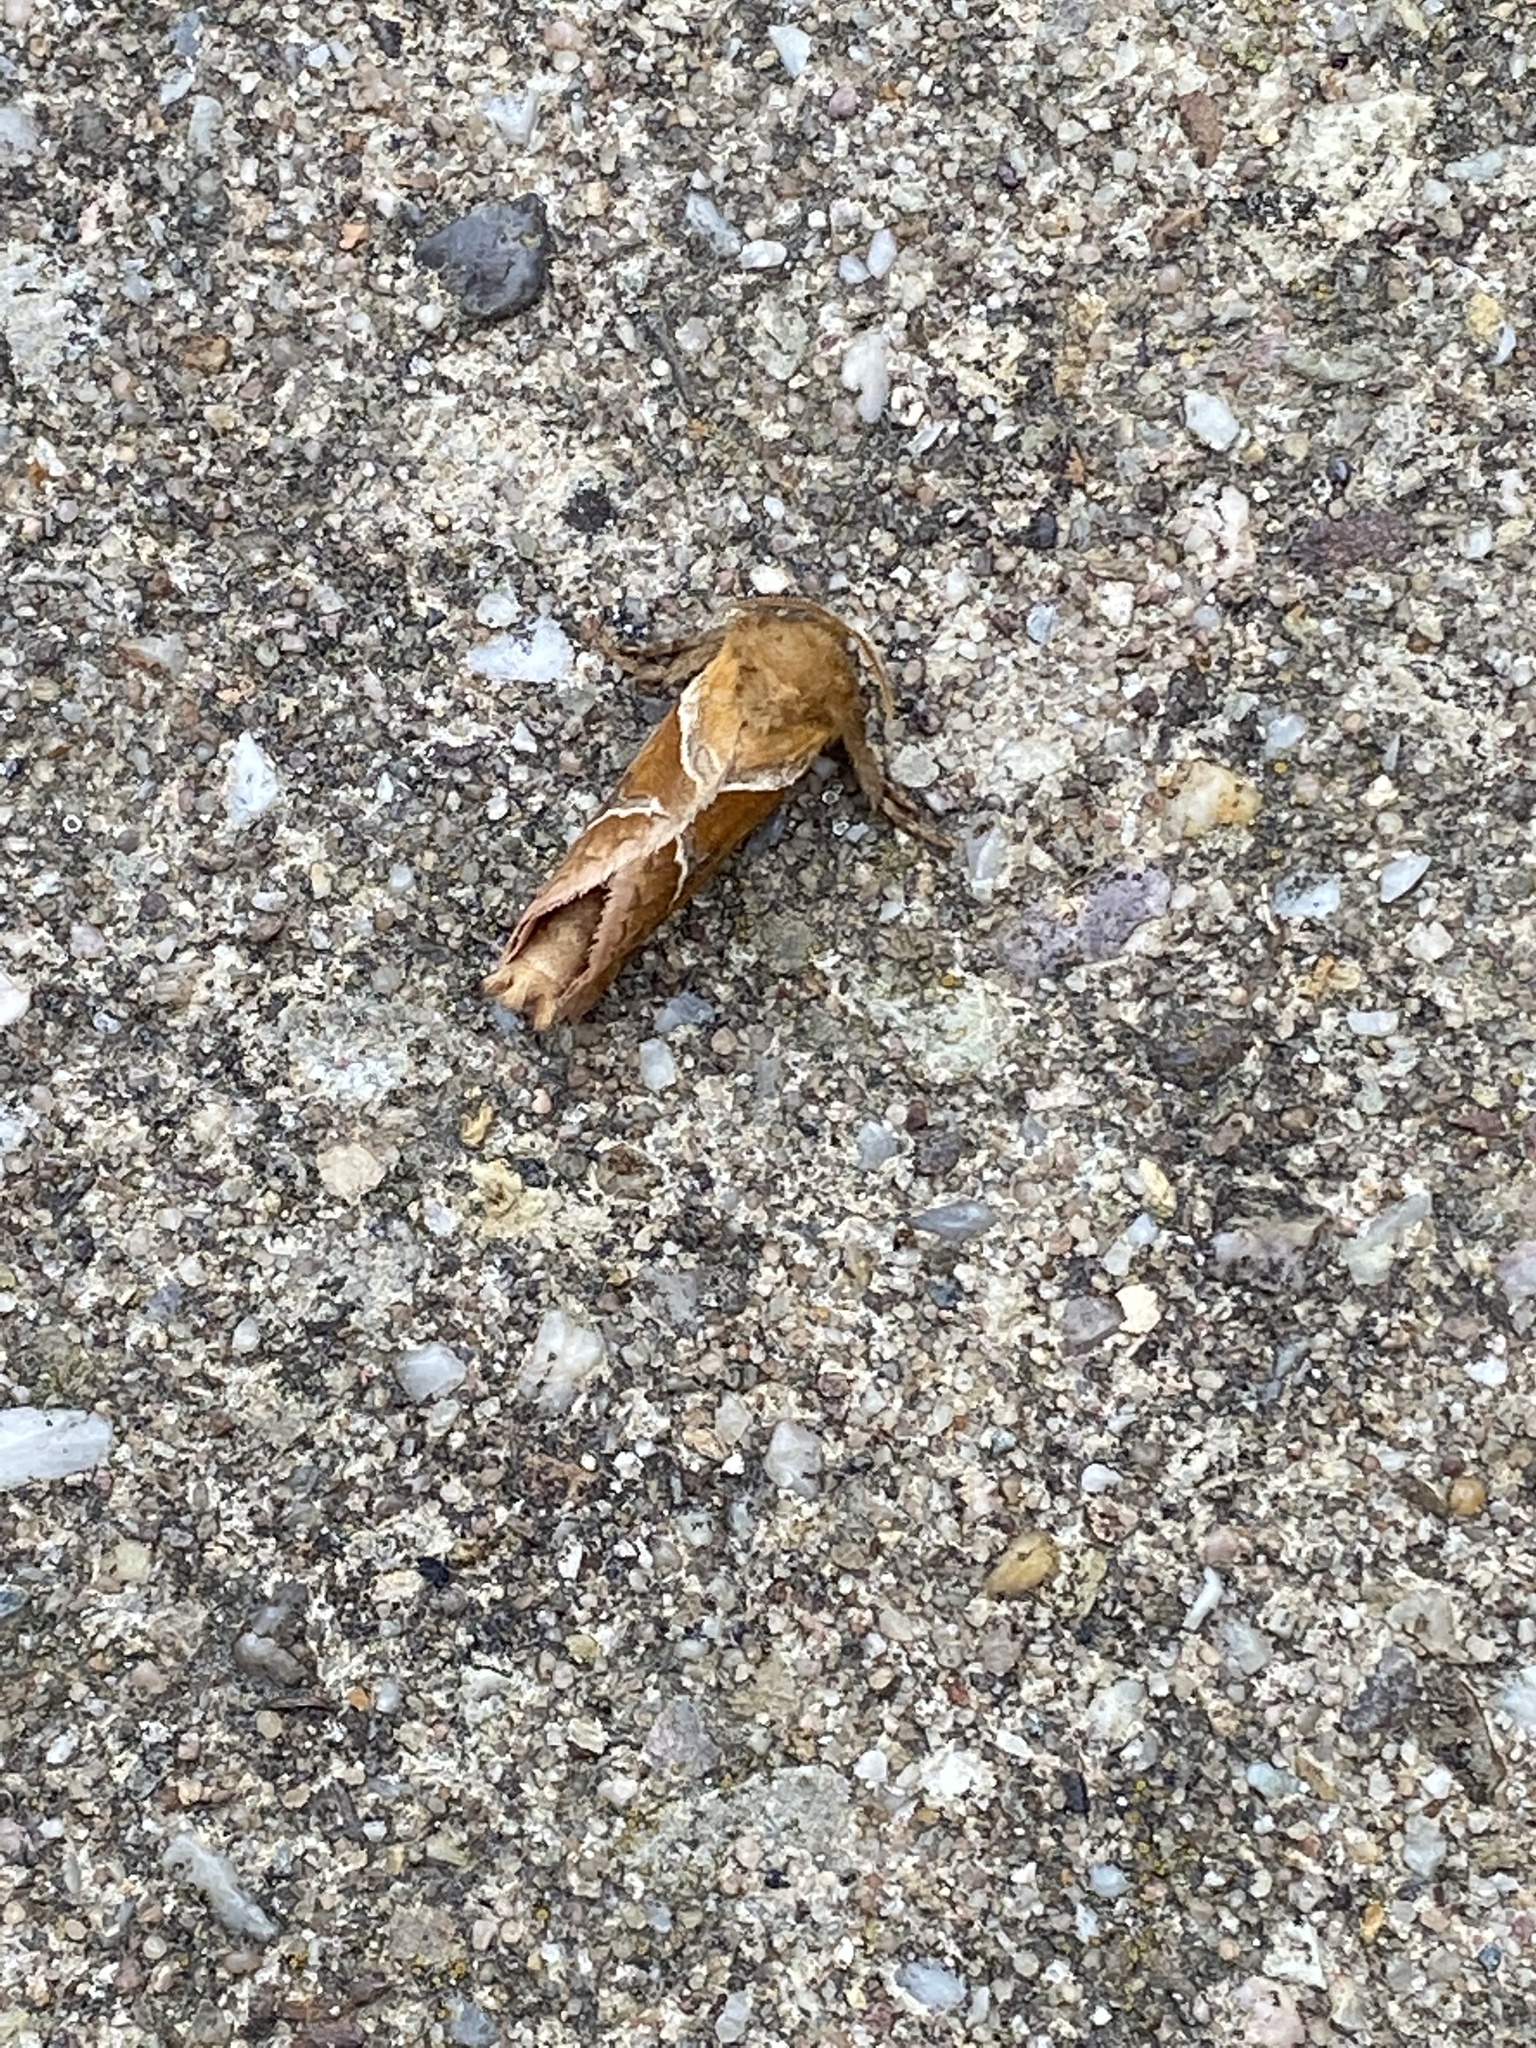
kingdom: Animalia
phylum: Arthropoda
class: Insecta
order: Lepidoptera
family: Hepialidae
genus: Triodia
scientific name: Triodia sylvina
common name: Orange swift
